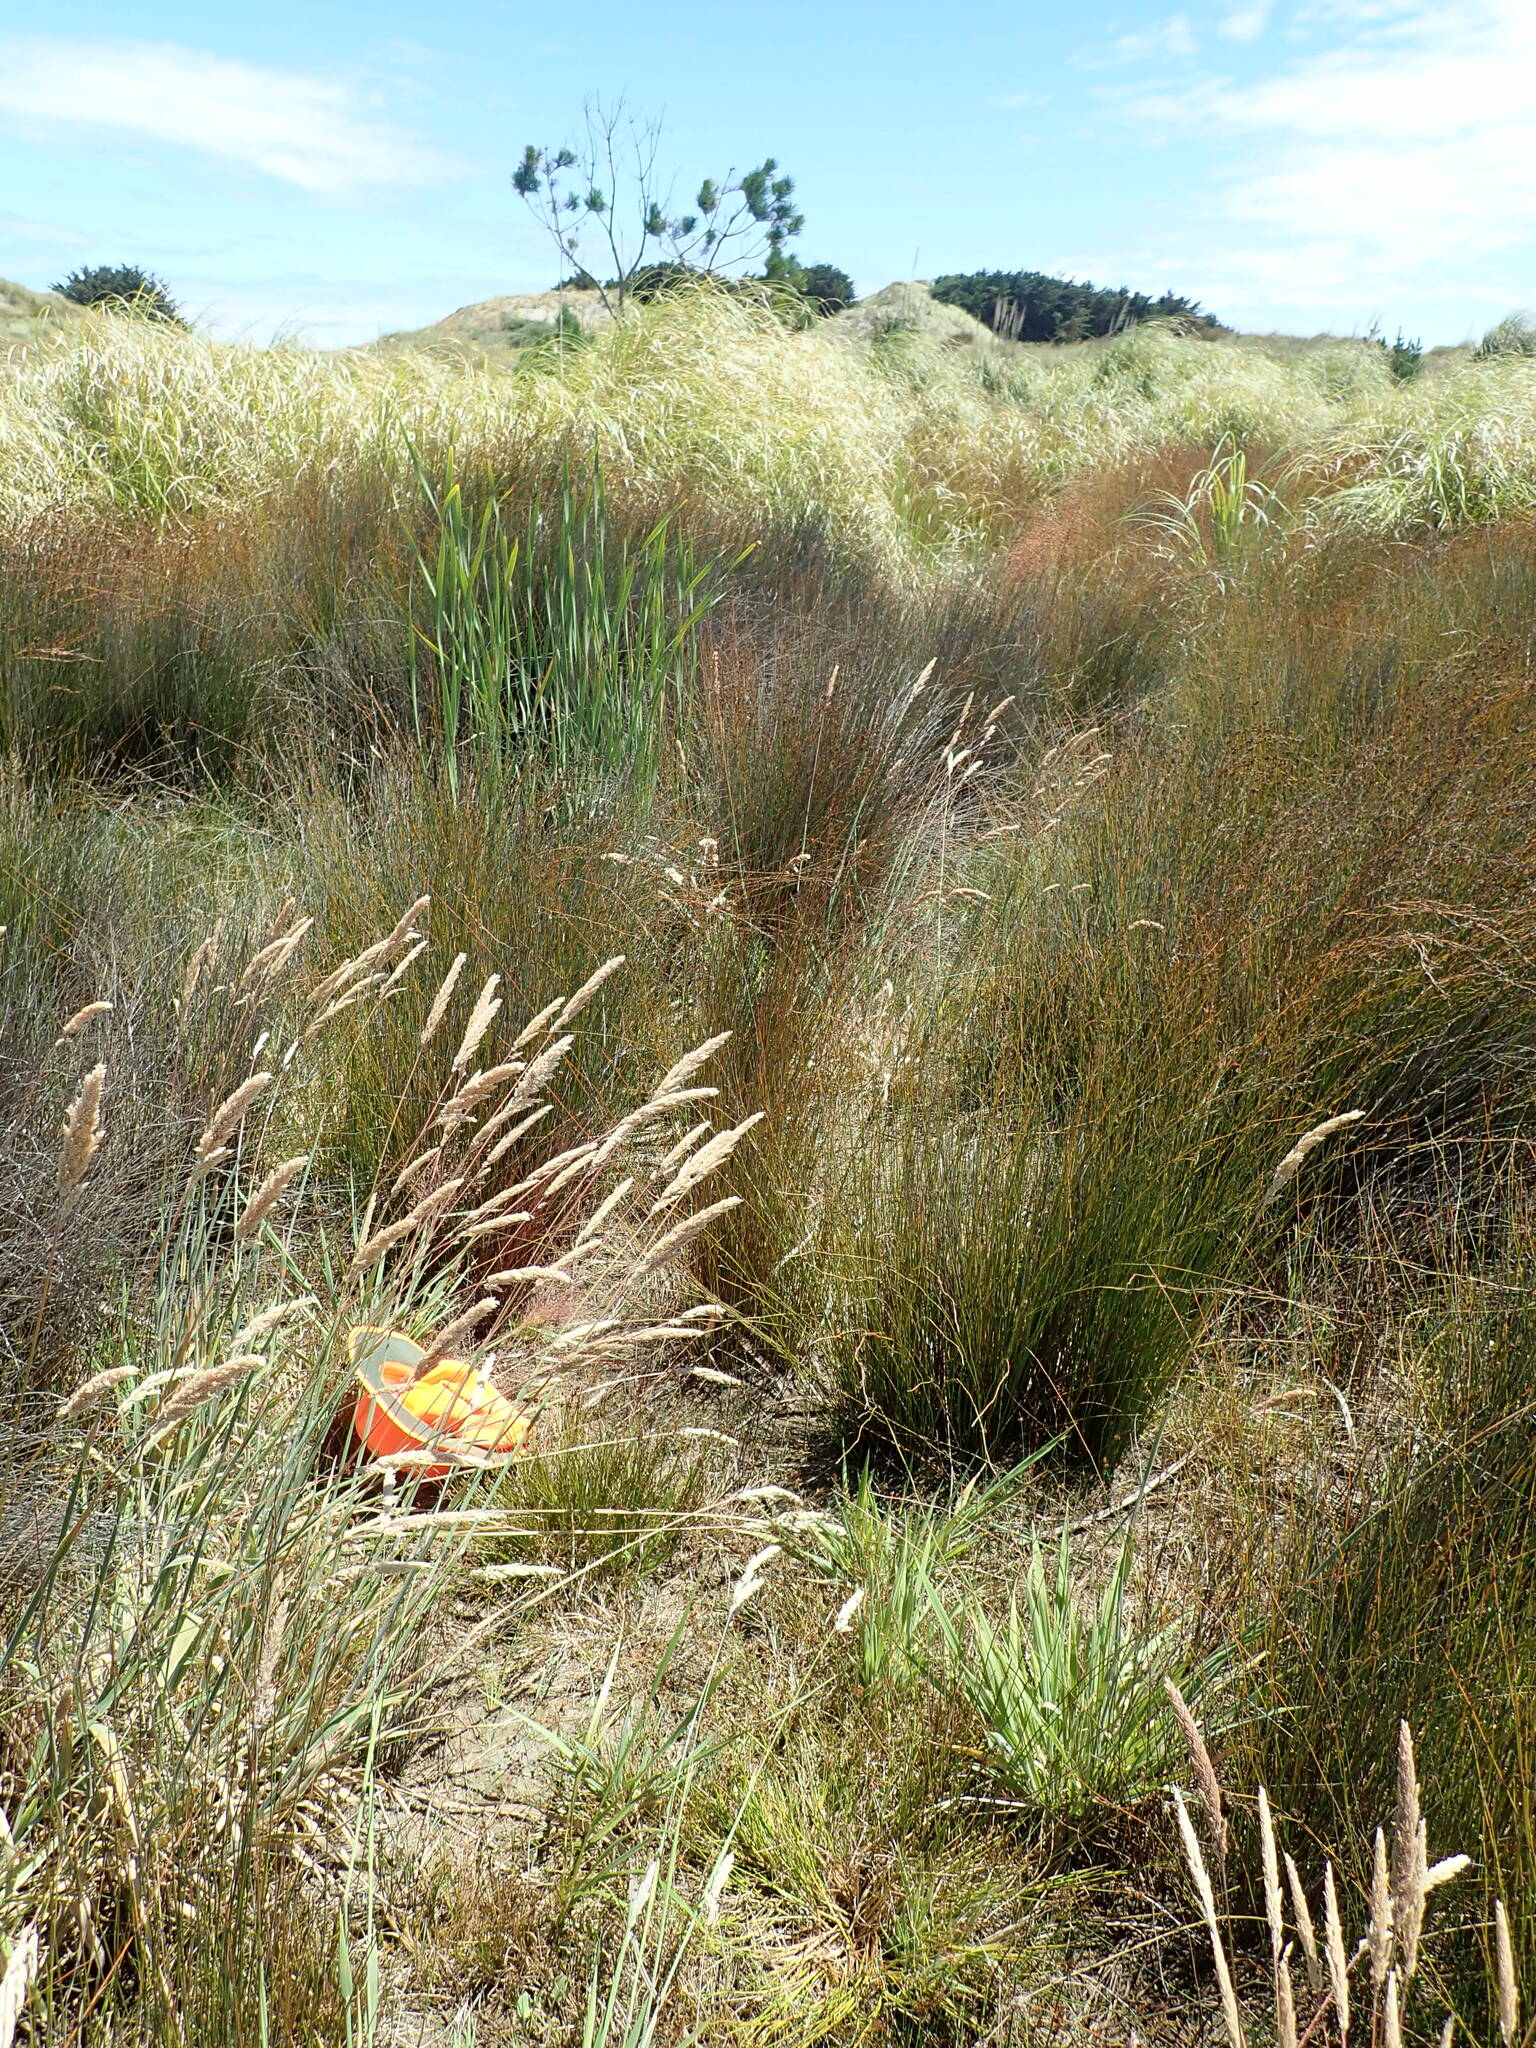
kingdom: Plantae
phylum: Tracheophyta
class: Liliopsida
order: Poales
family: Poaceae
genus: Holcus
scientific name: Holcus lanatus
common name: Yorkshire-fog
